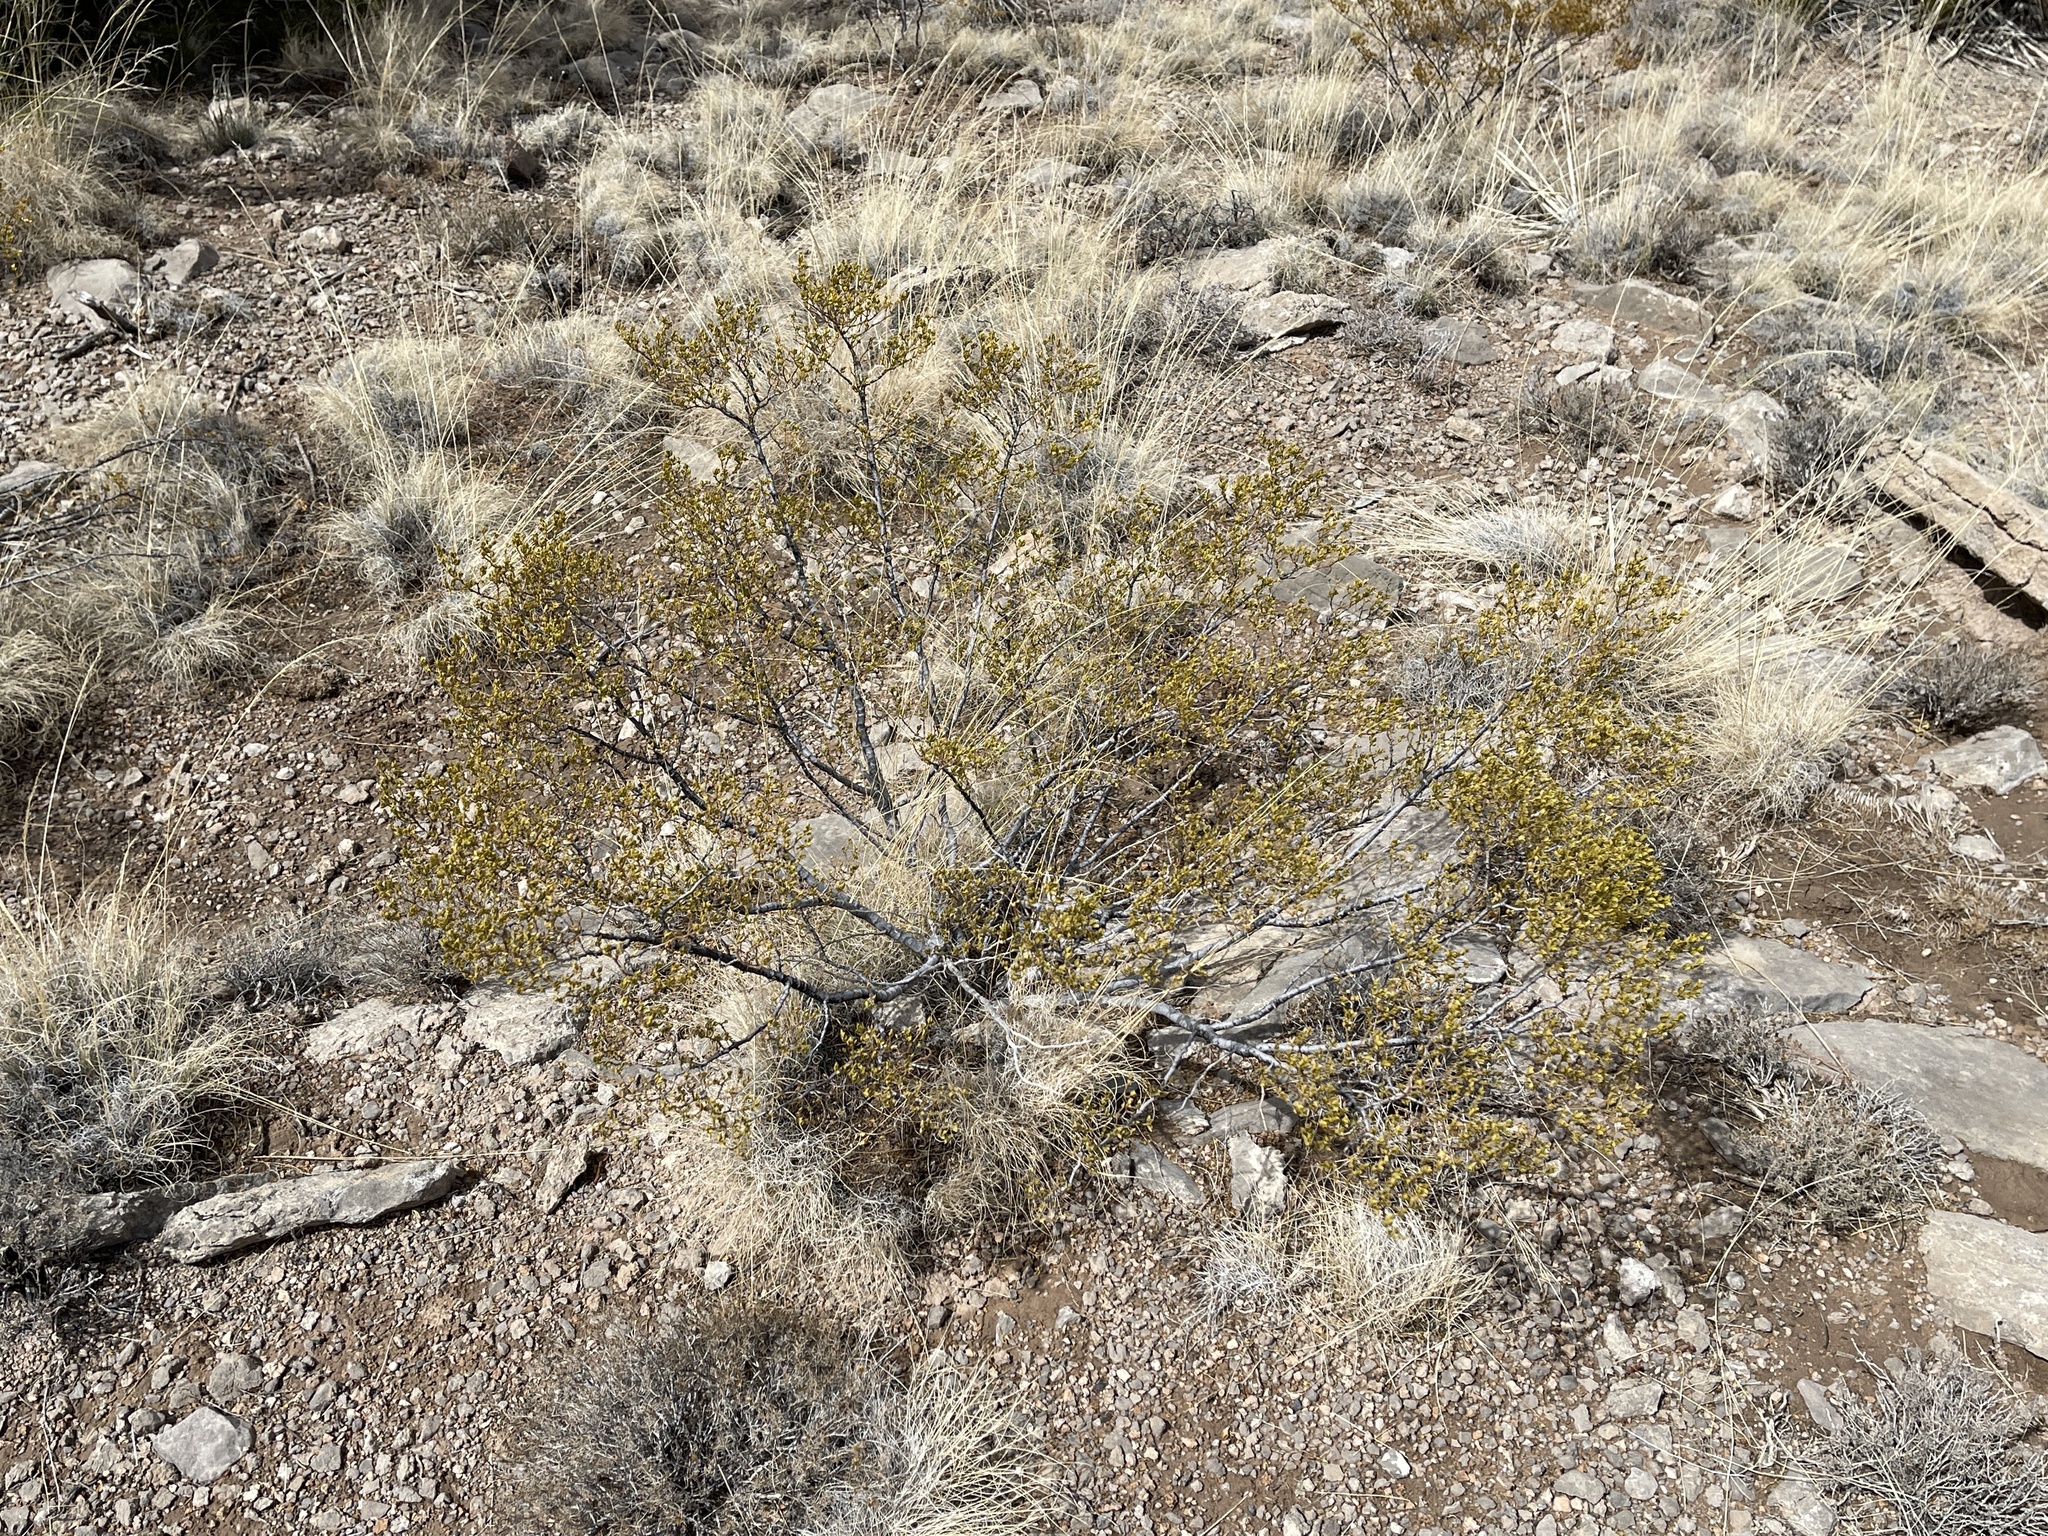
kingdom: Plantae
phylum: Tracheophyta
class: Magnoliopsida
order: Zygophyllales
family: Zygophyllaceae
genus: Larrea
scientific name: Larrea tridentata
